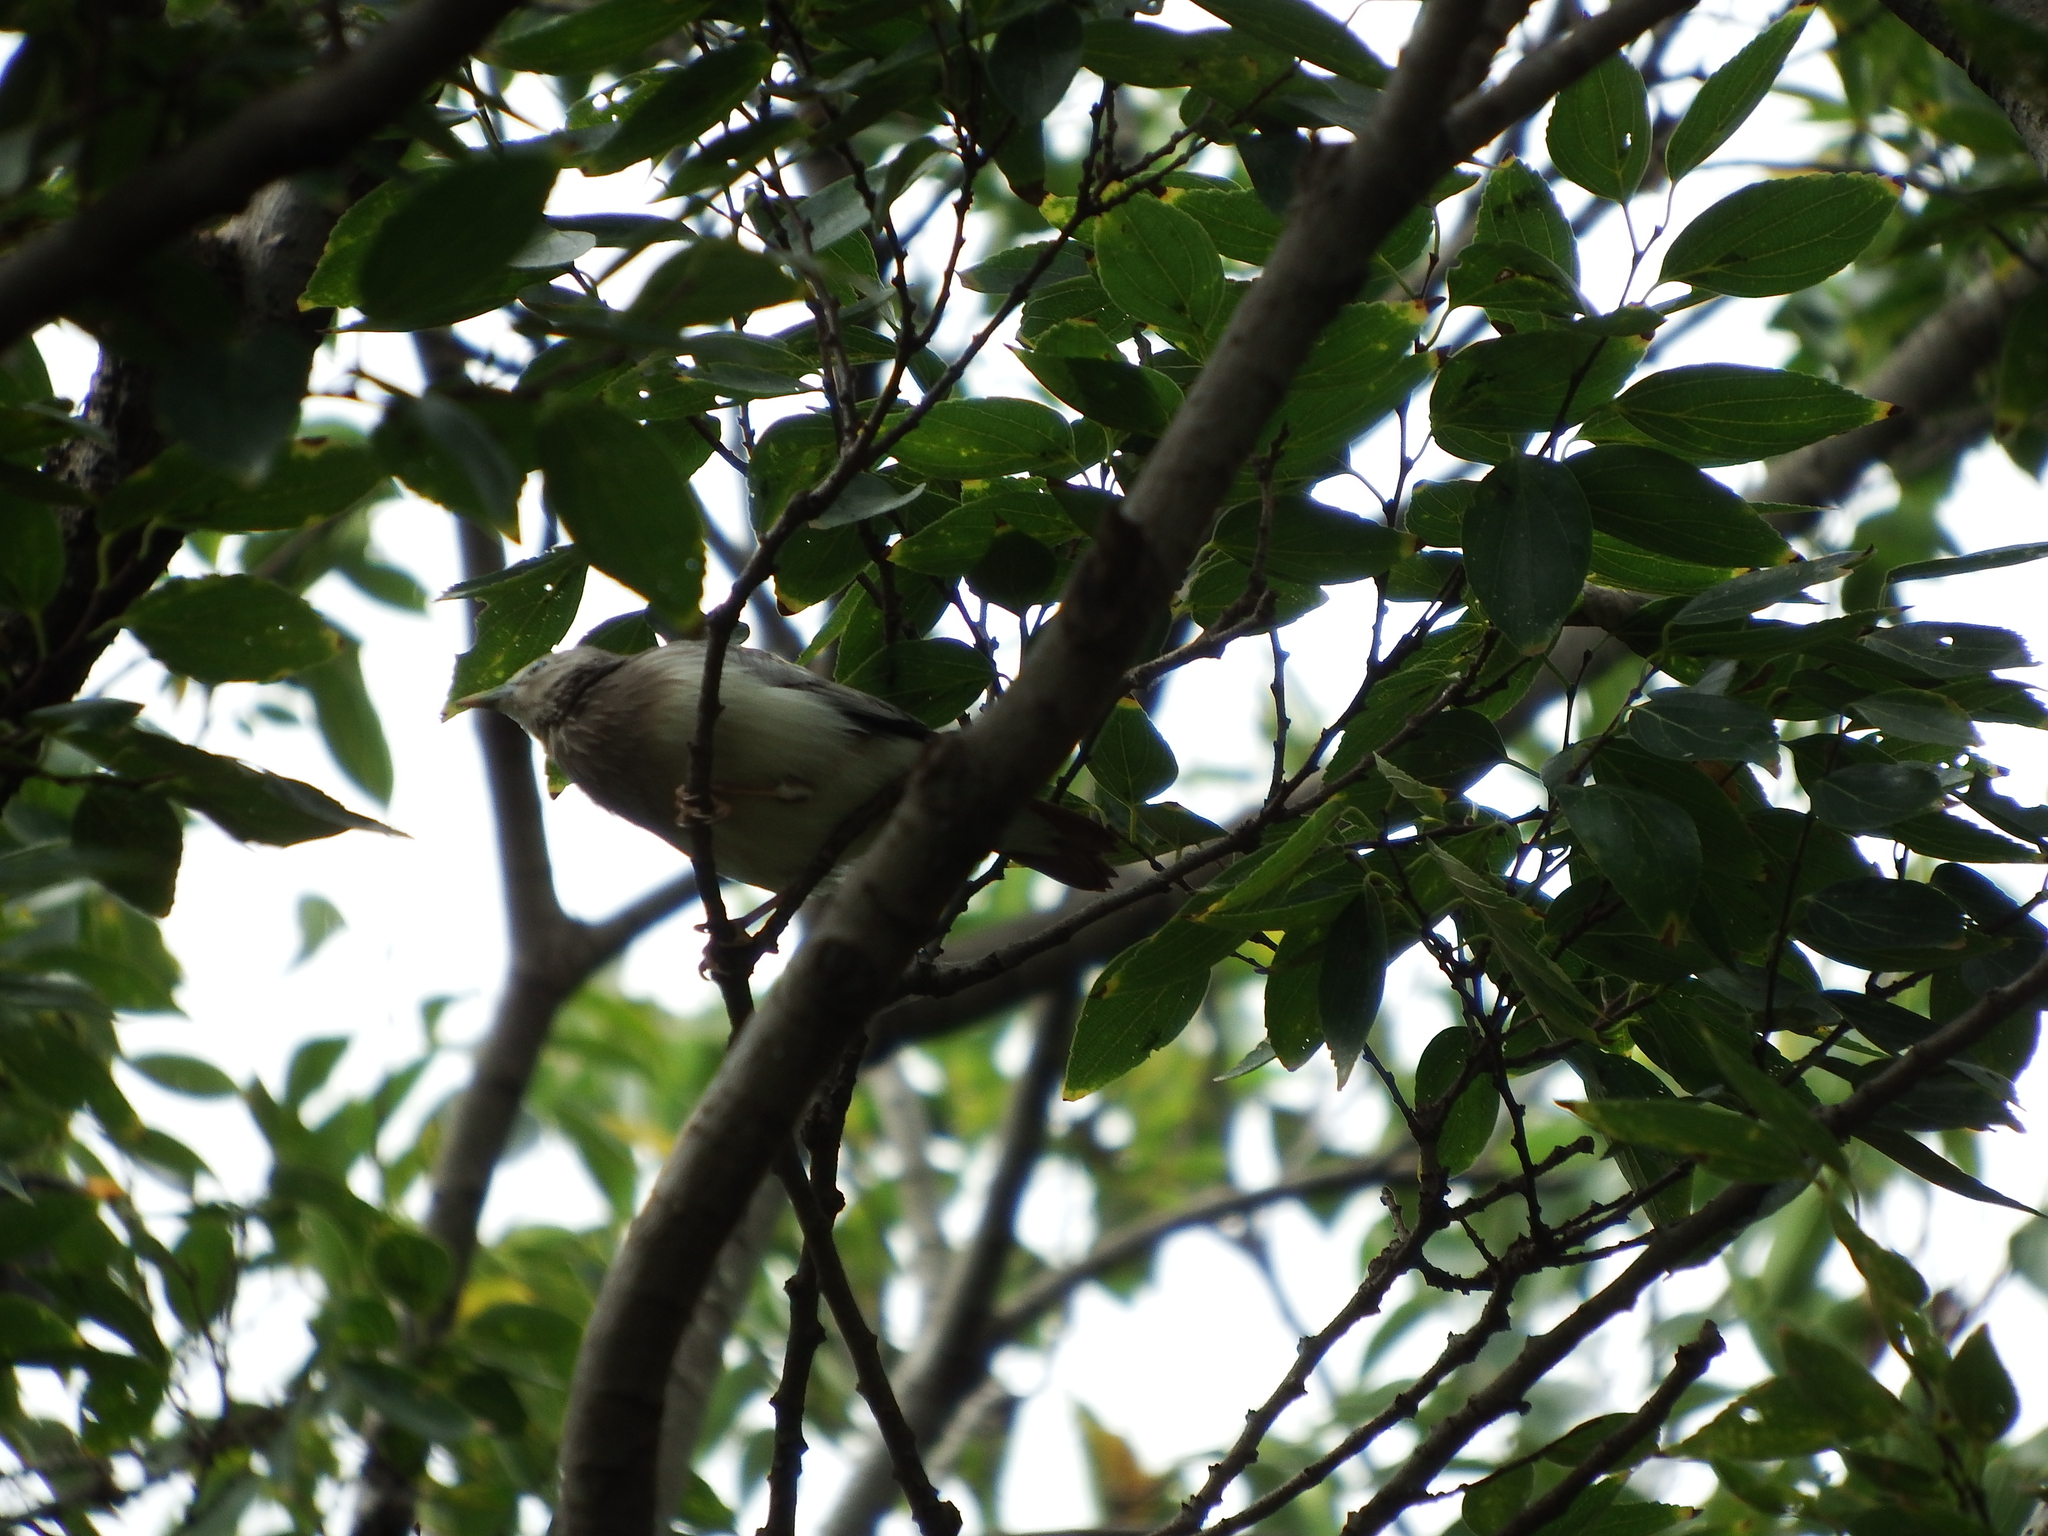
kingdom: Animalia
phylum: Chordata
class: Aves
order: Passeriformes
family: Sturnidae
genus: Sturnia
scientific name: Sturnia malabarica
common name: Chestnut-tailed starling
